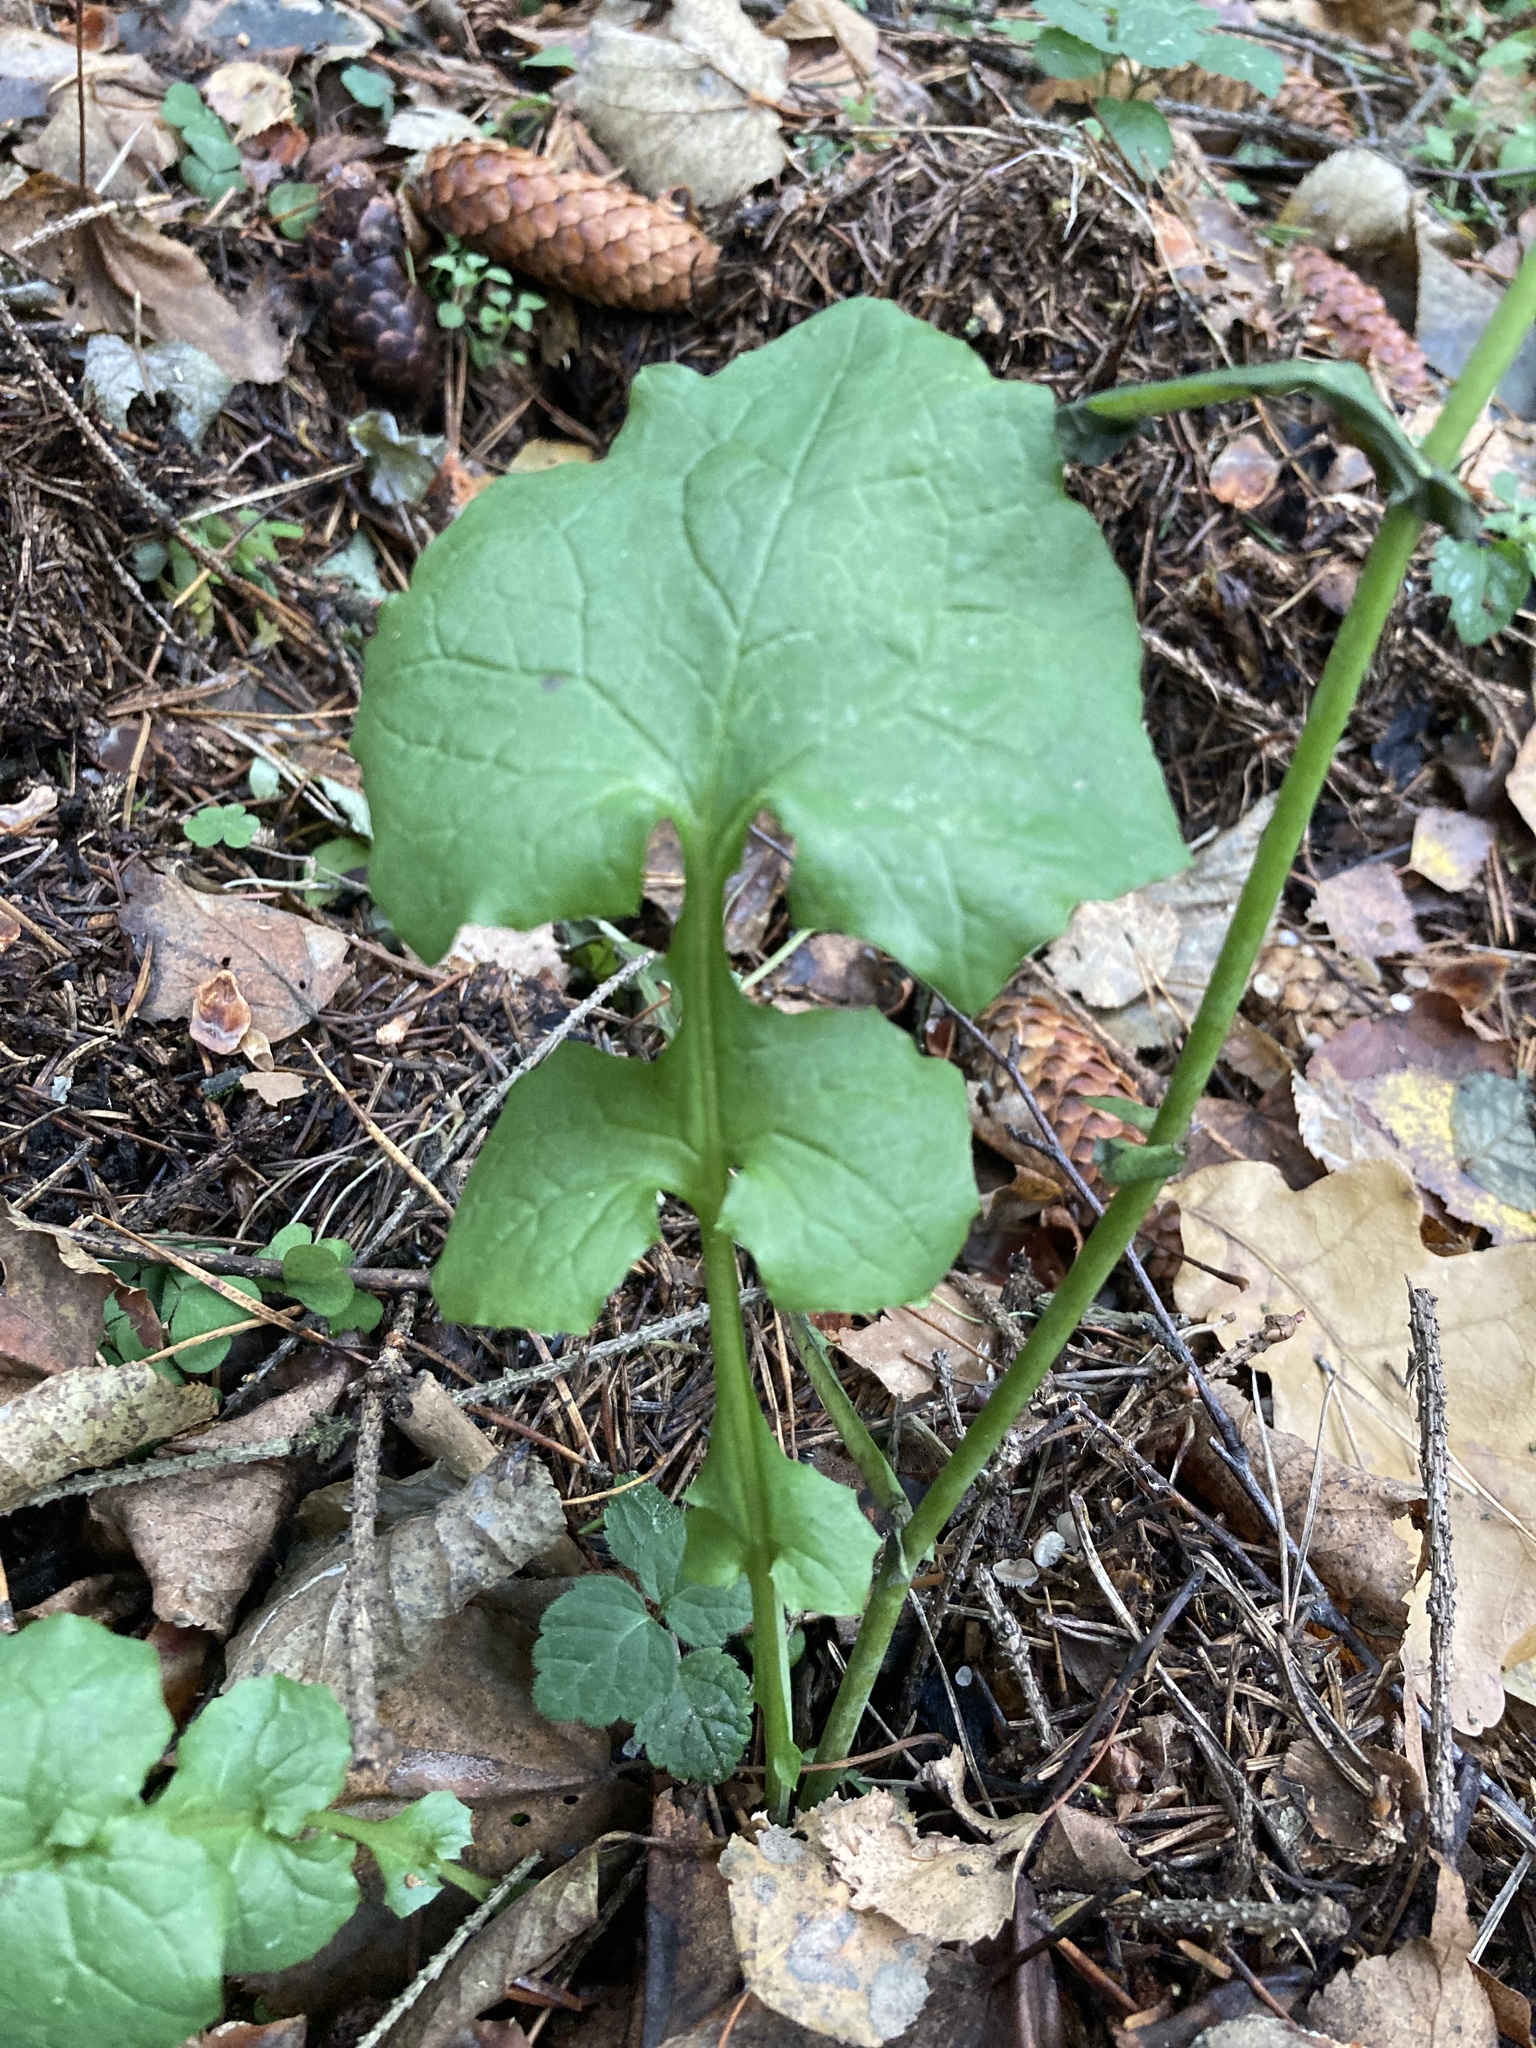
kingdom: Plantae
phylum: Tracheophyta
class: Magnoliopsida
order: Asterales
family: Asteraceae
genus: Mycelis
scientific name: Mycelis muralis
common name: Wall lettuce
